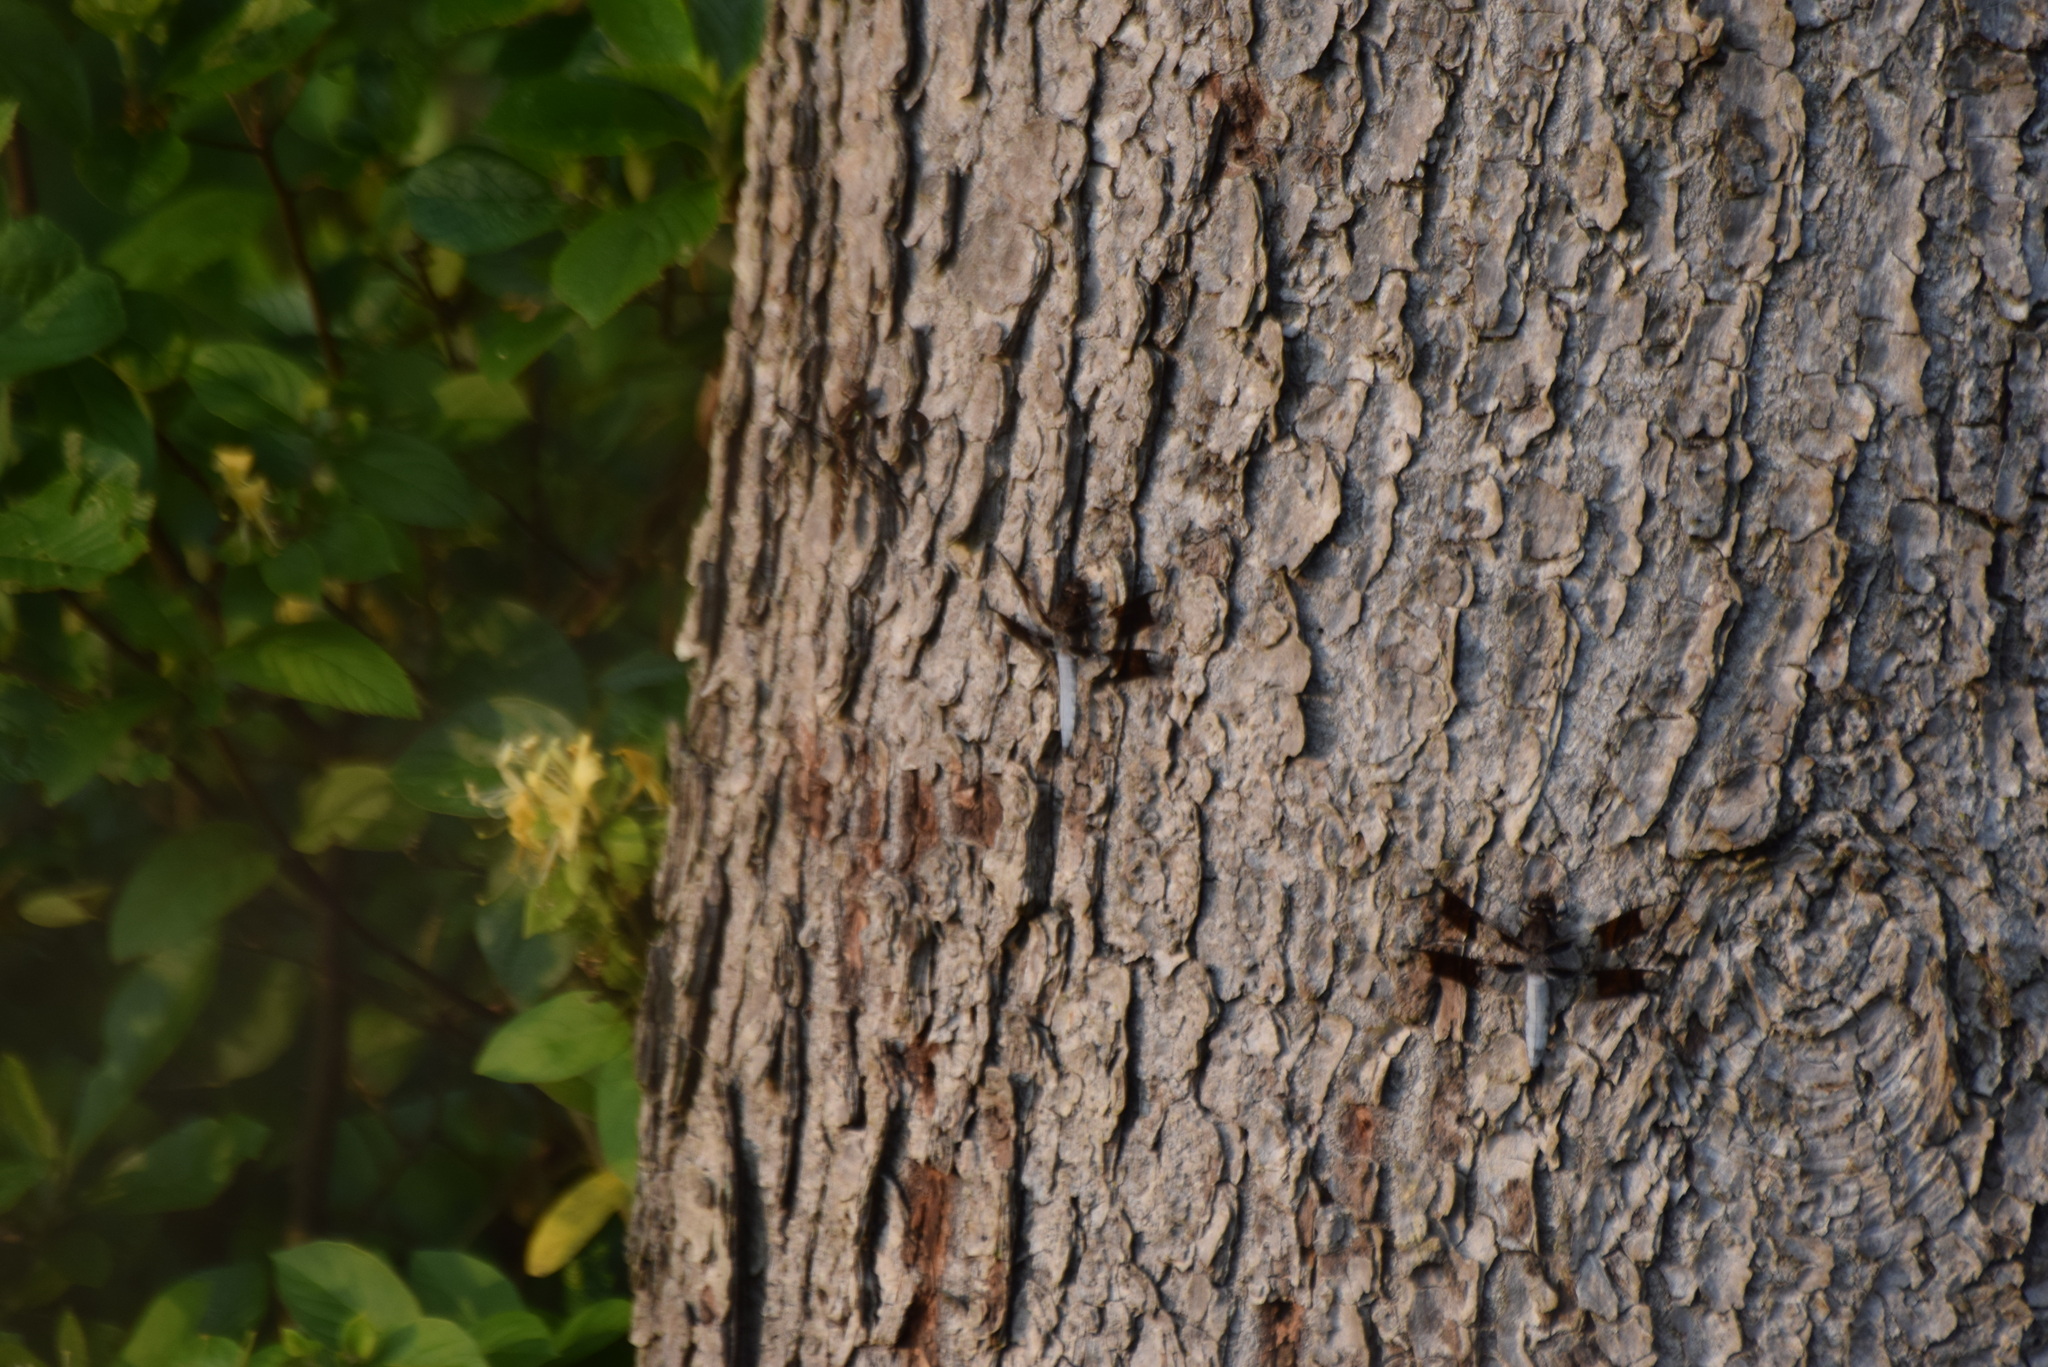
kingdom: Animalia
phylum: Arthropoda
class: Insecta
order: Odonata
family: Libellulidae
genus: Plathemis
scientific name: Plathemis lydia
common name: Common whitetail
